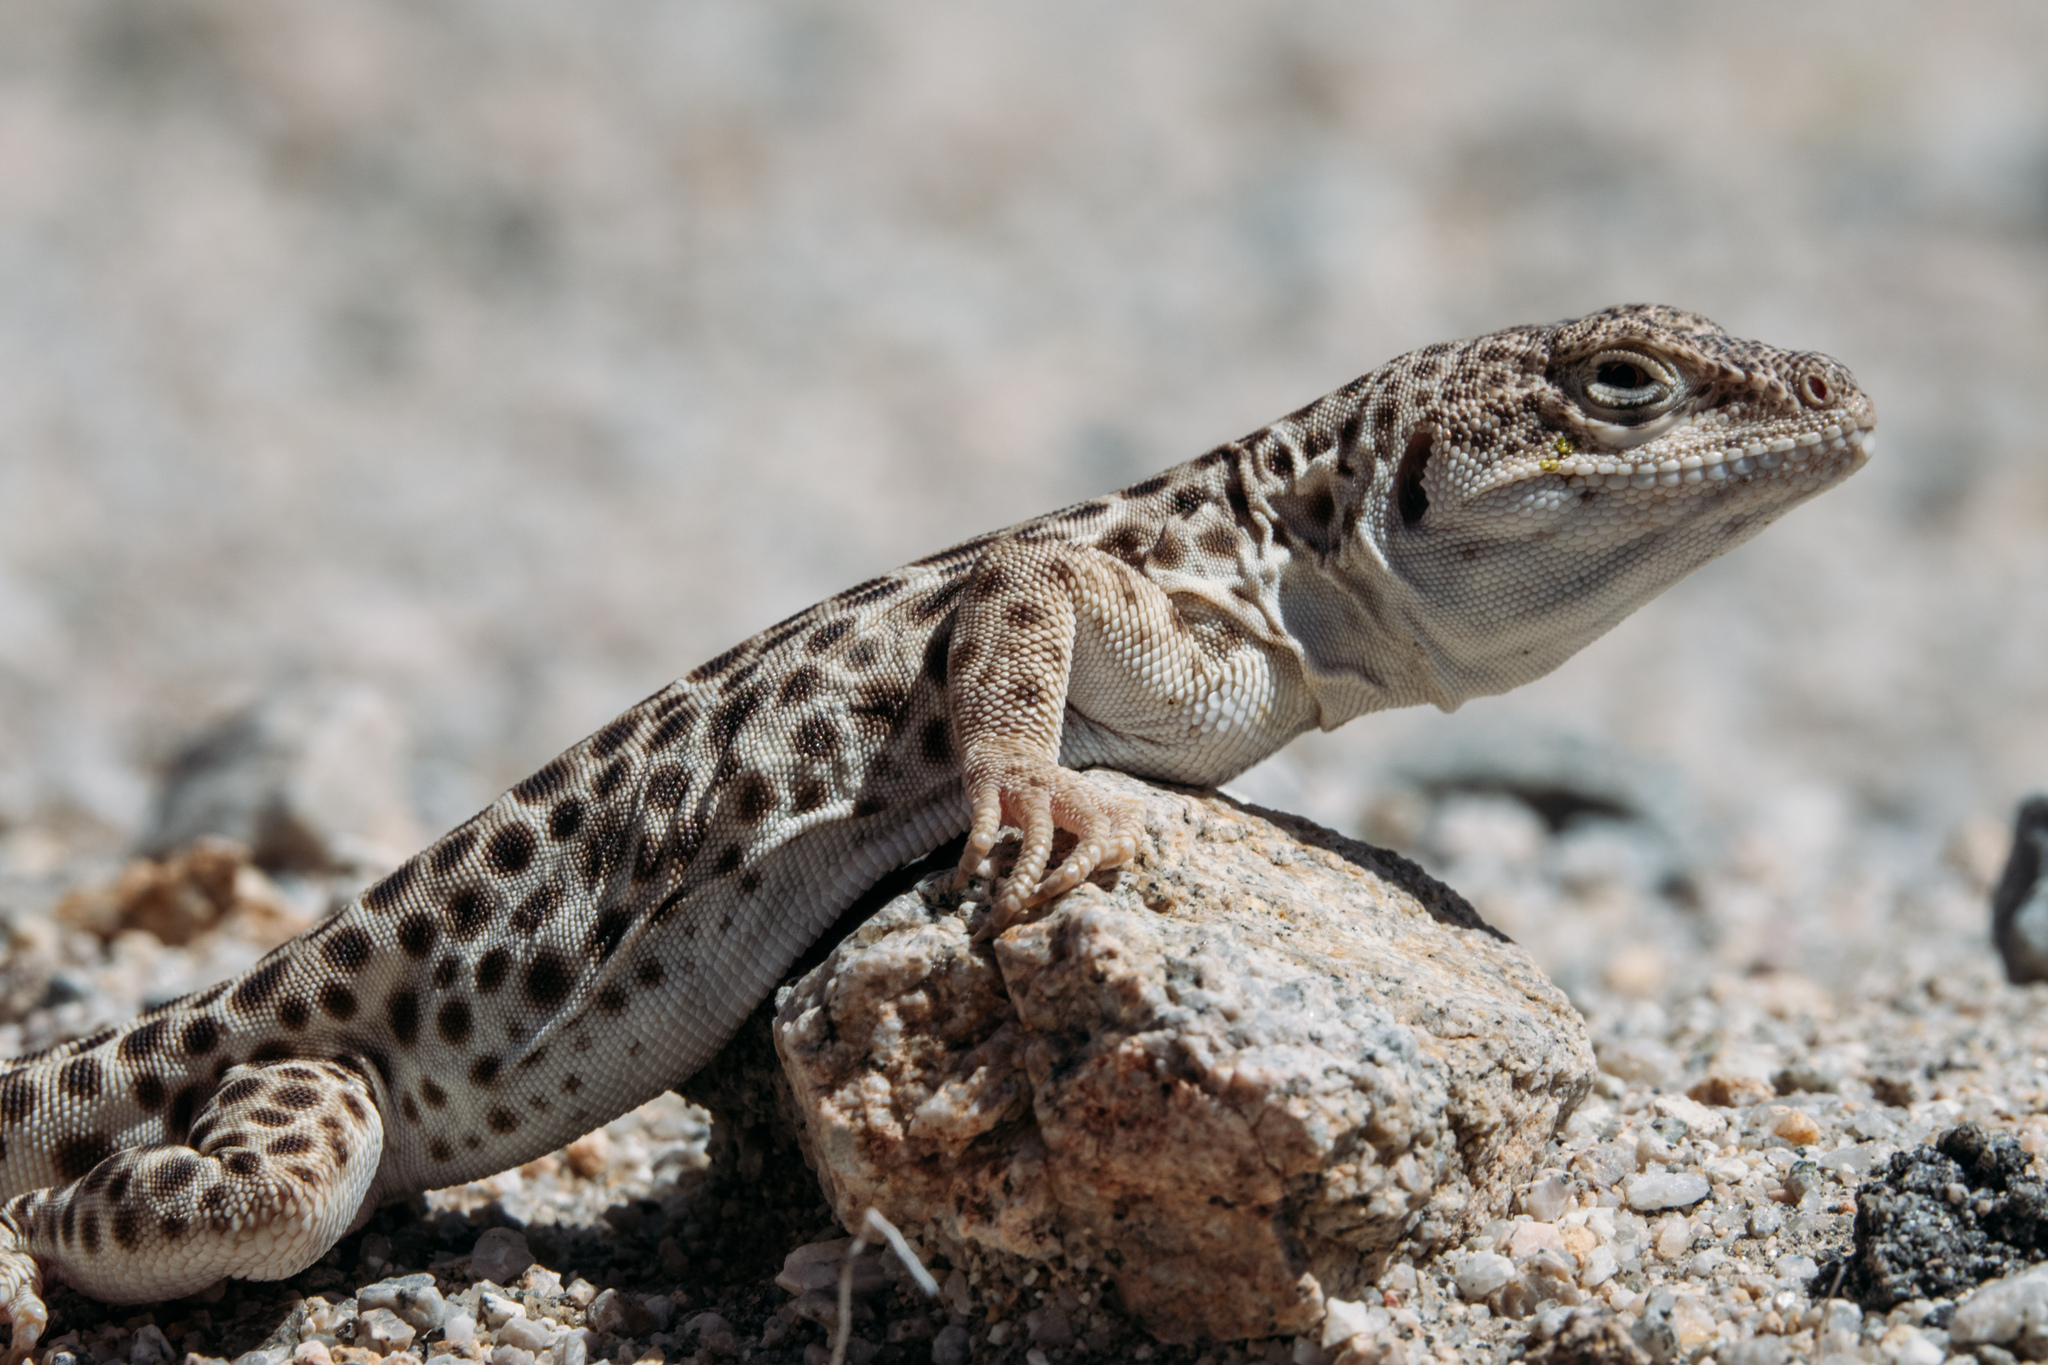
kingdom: Animalia
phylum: Chordata
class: Squamata
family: Crotaphytidae
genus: Gambelia
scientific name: Gambelia wislizenii
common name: Longnose leopard lizard
